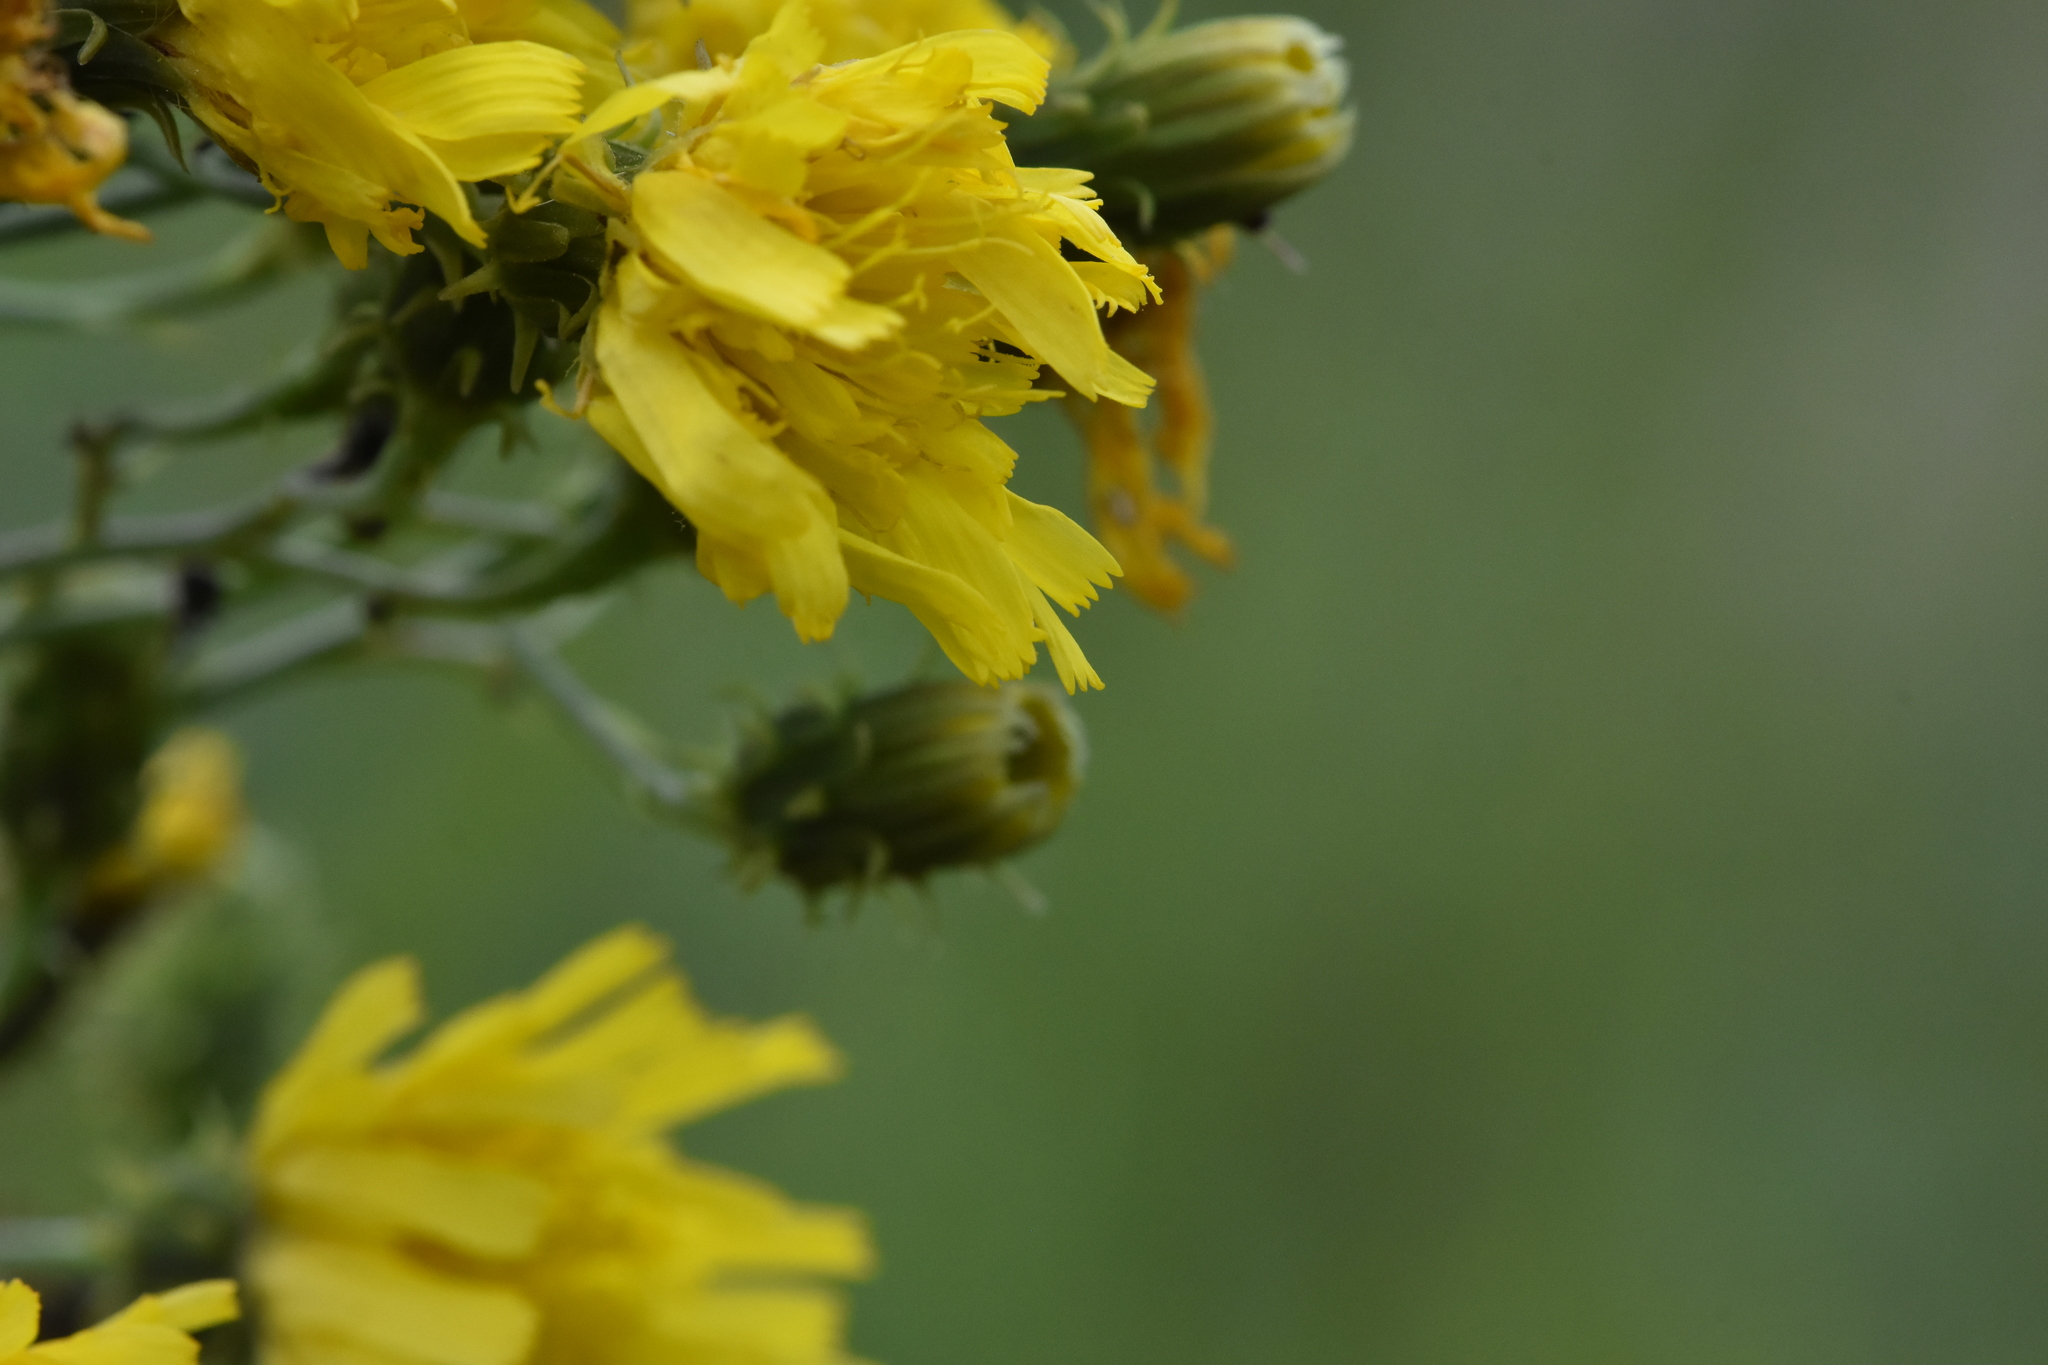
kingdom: Plantae
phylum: Tracheophyta
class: Magnoliopsida
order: Asterales
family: Asteraceae
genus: Hieracium
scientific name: Hieracium umbellatum
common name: Northern hawkweed
